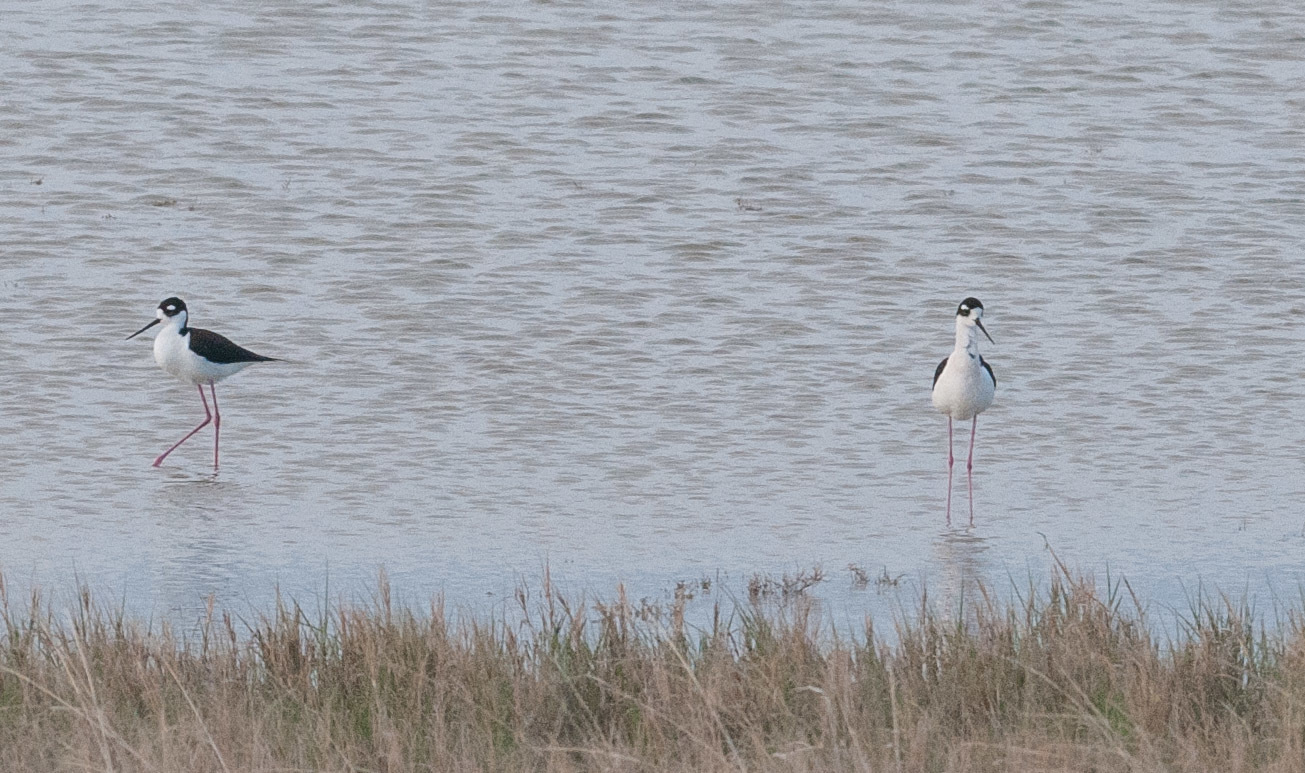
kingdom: Animalia
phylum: Chordata
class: Aves
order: Charadriiformes
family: Recurvirostridae
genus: Himantopus
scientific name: Himantopus mexicanus
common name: Black-necked stilt
